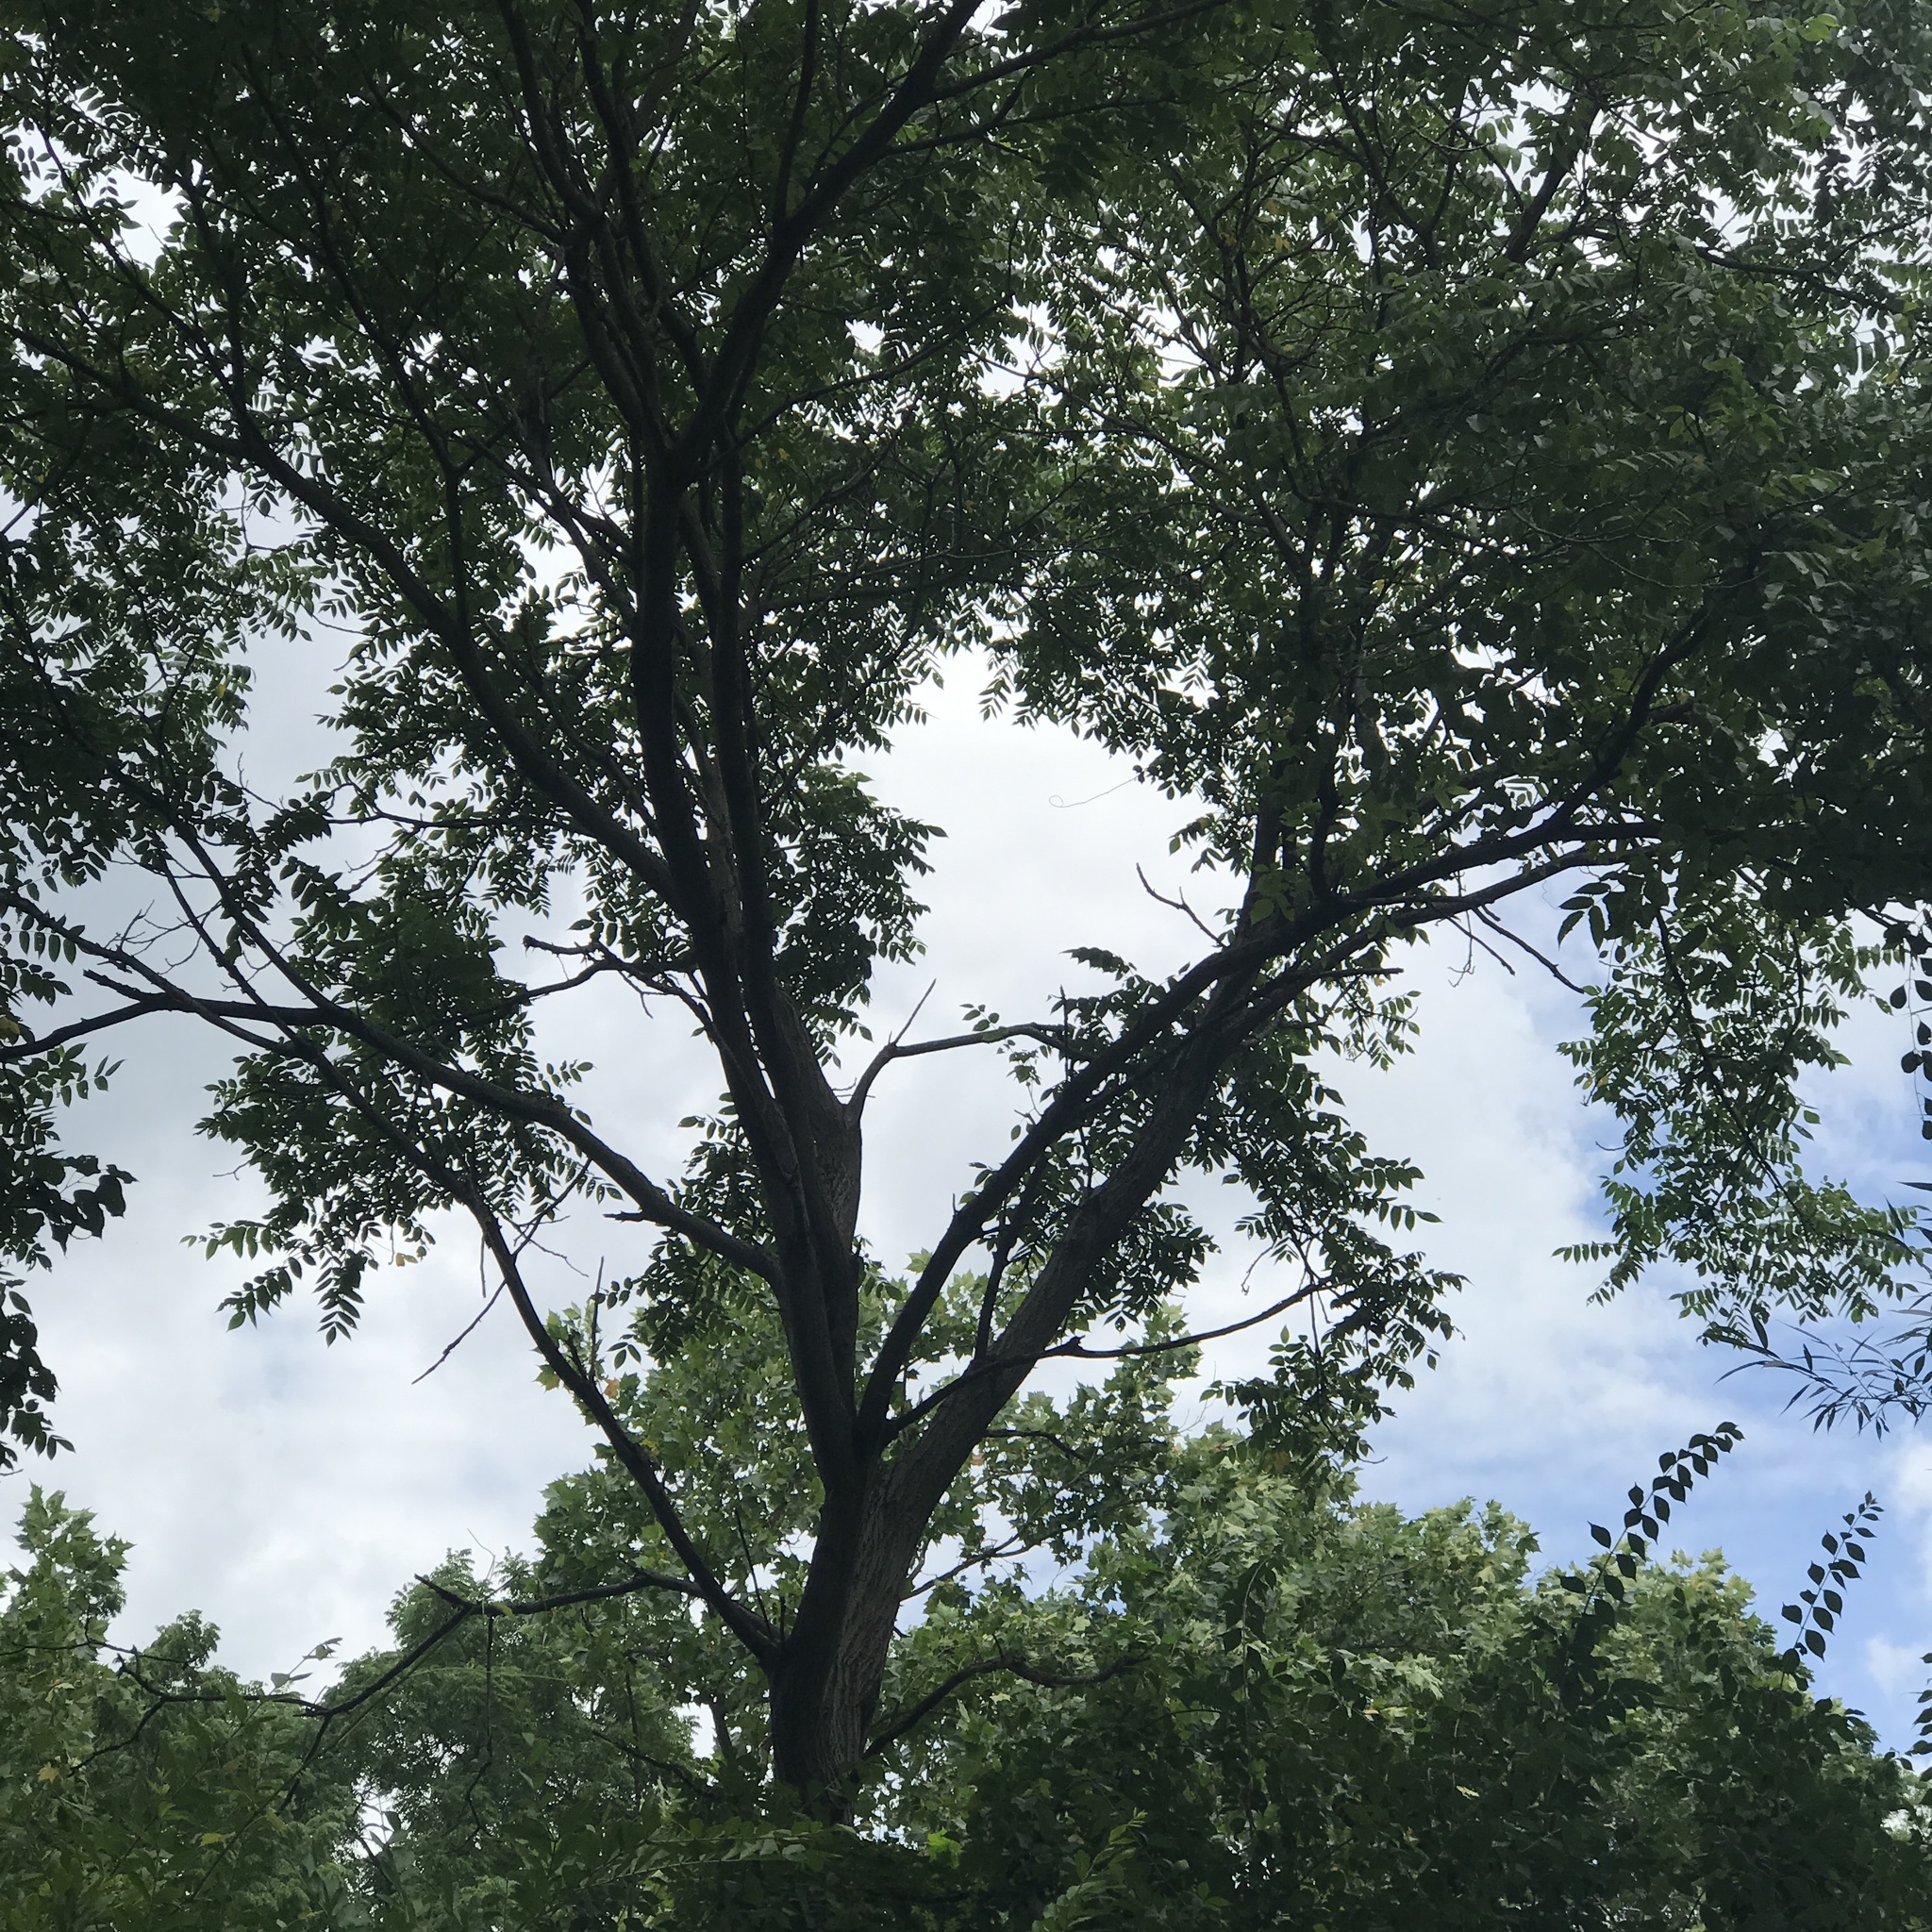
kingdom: Plantae
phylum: Tracheophyta
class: Magnoliopsida
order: Fagales
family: Juglandaceae
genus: Juglans
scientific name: Juglans cinerea
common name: Butternut
